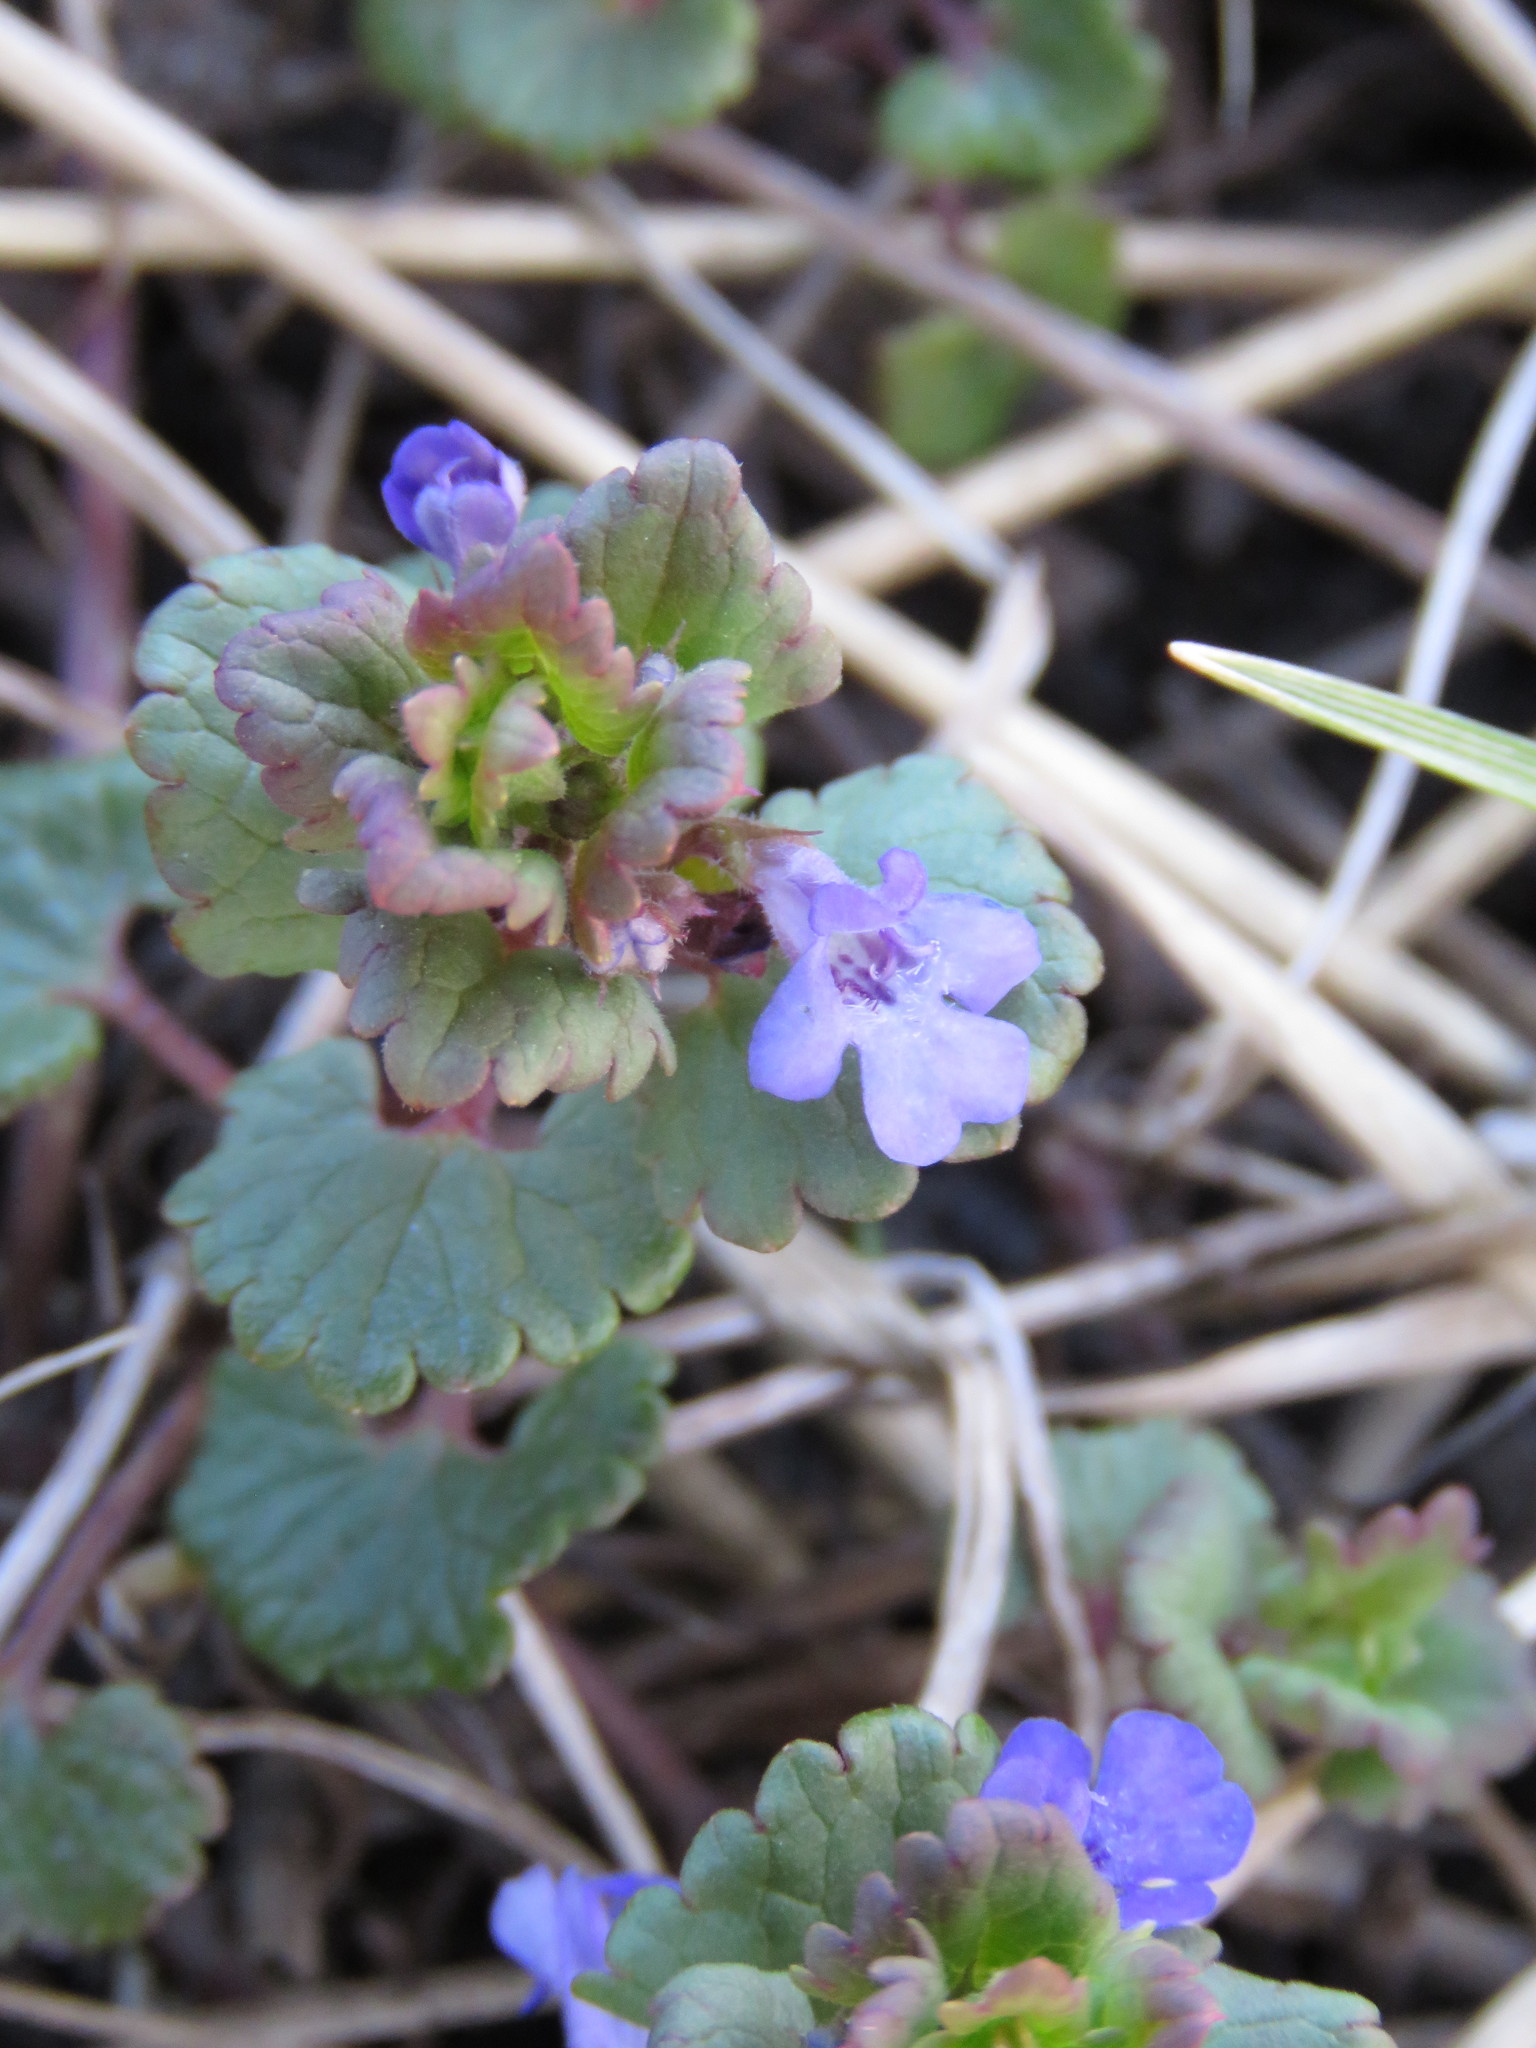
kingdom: Plantae
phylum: Tracheophyta
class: Magnoliopsida
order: Lamiales
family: Lamiaceae
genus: Glechoma
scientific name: Glechoma hederacea
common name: Ground ivy
